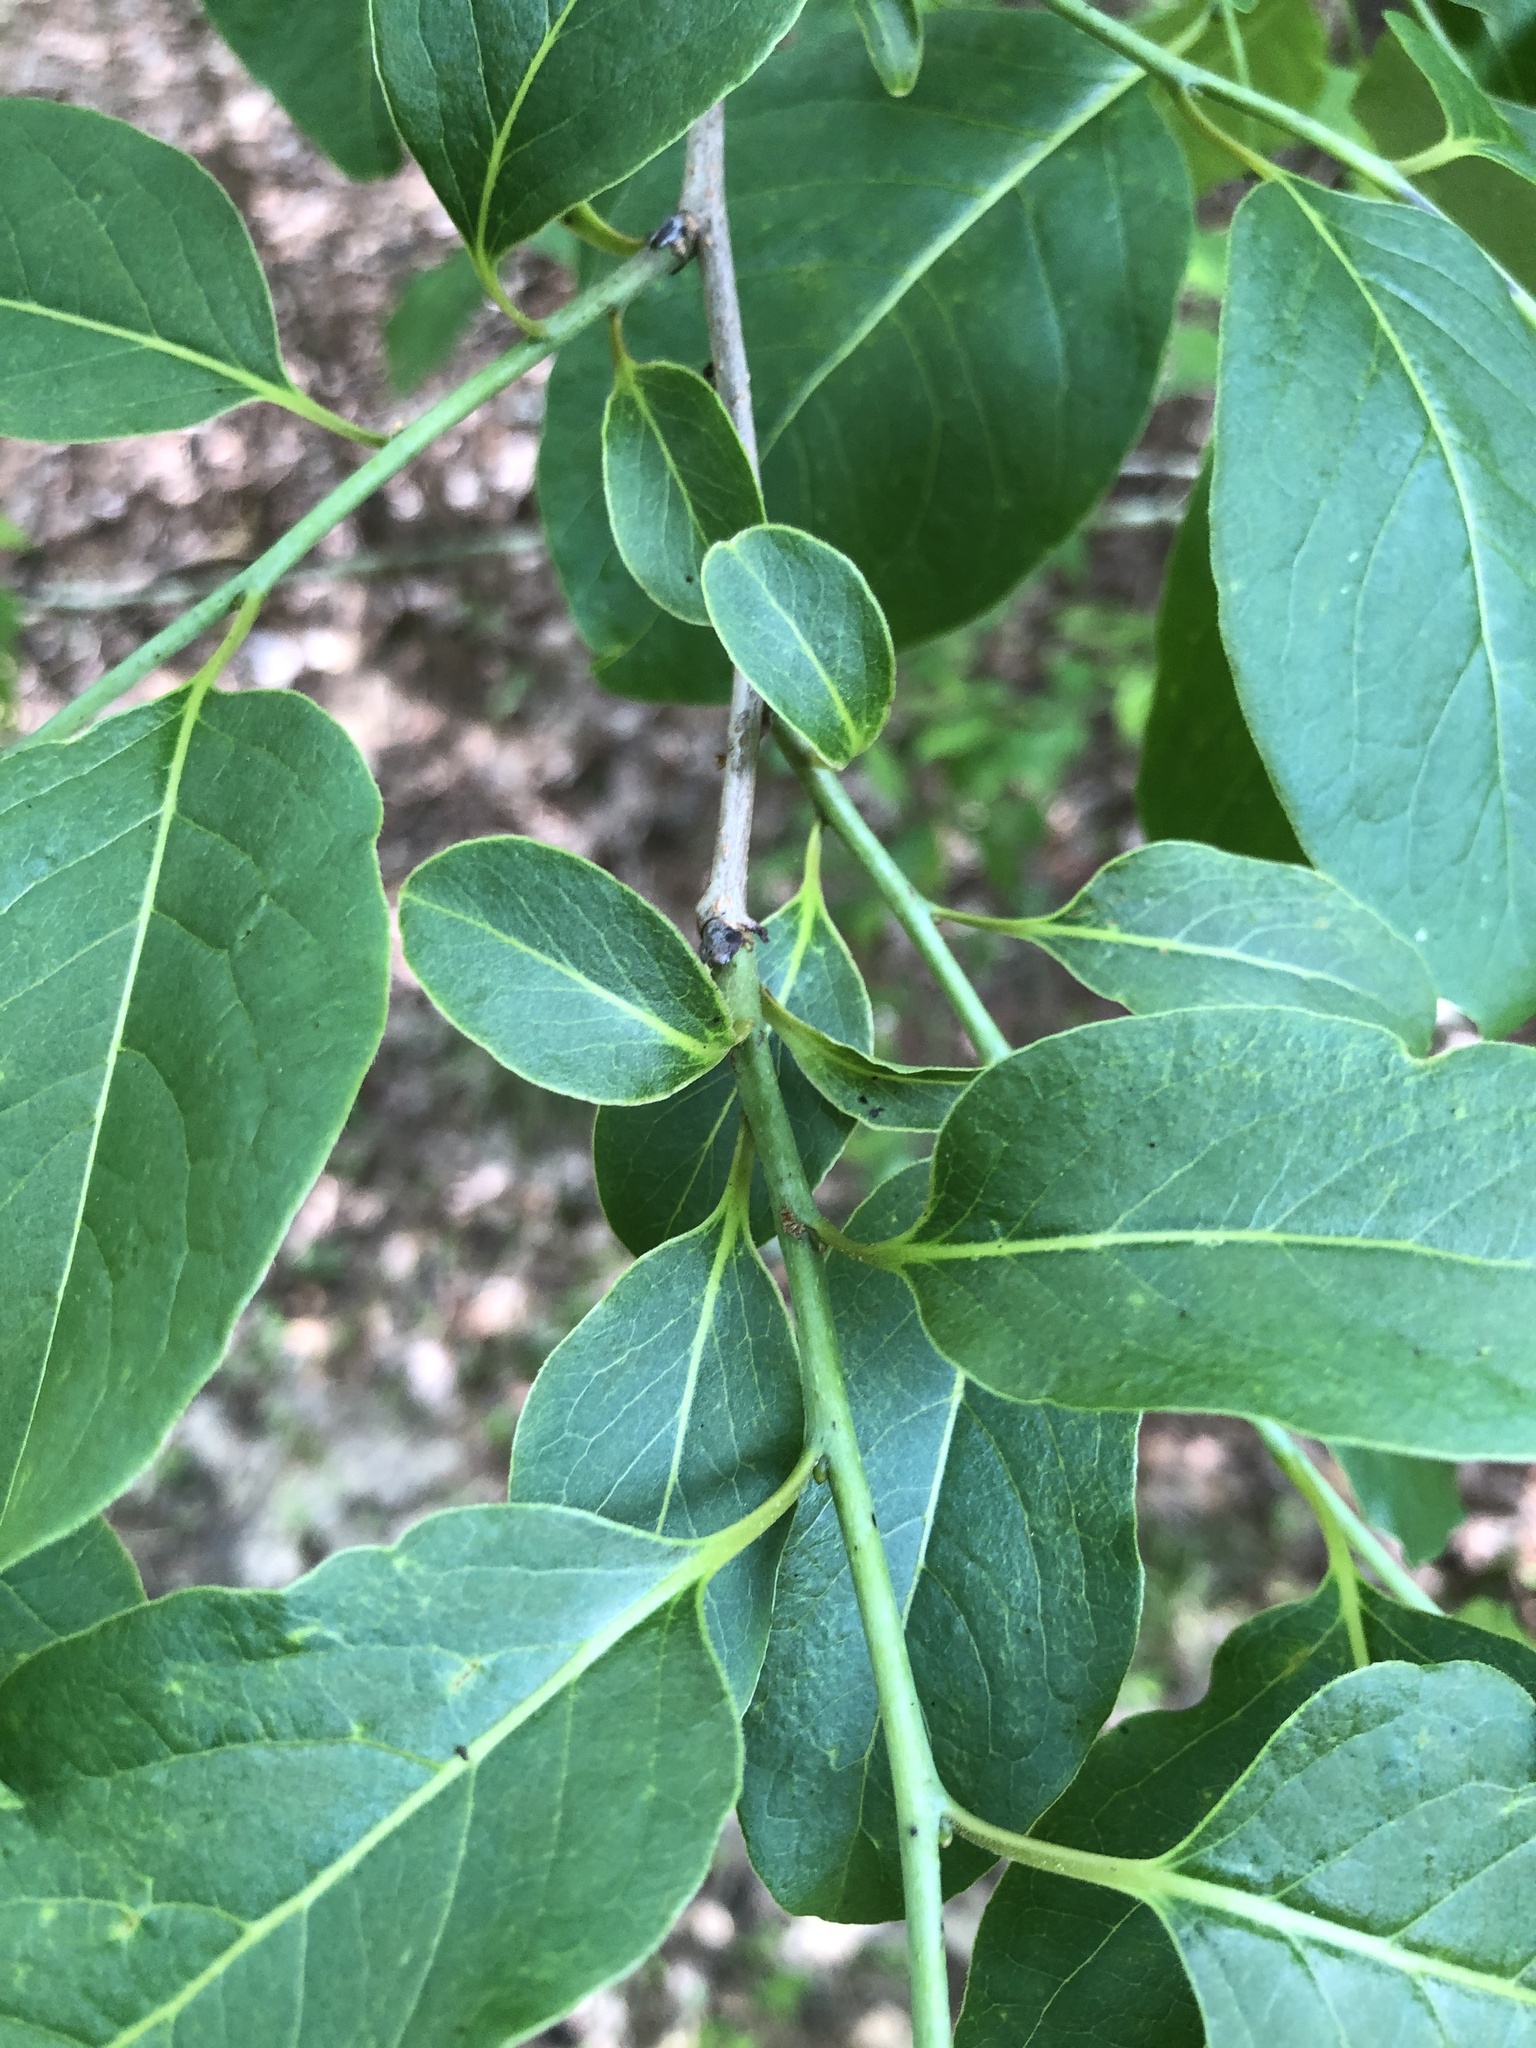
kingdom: Plantae
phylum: Tracheophyta
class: Magnoliopsida
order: Ericales
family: Ebenaceae
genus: Diospyros
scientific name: Diospyros virginiana
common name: Persimmon
